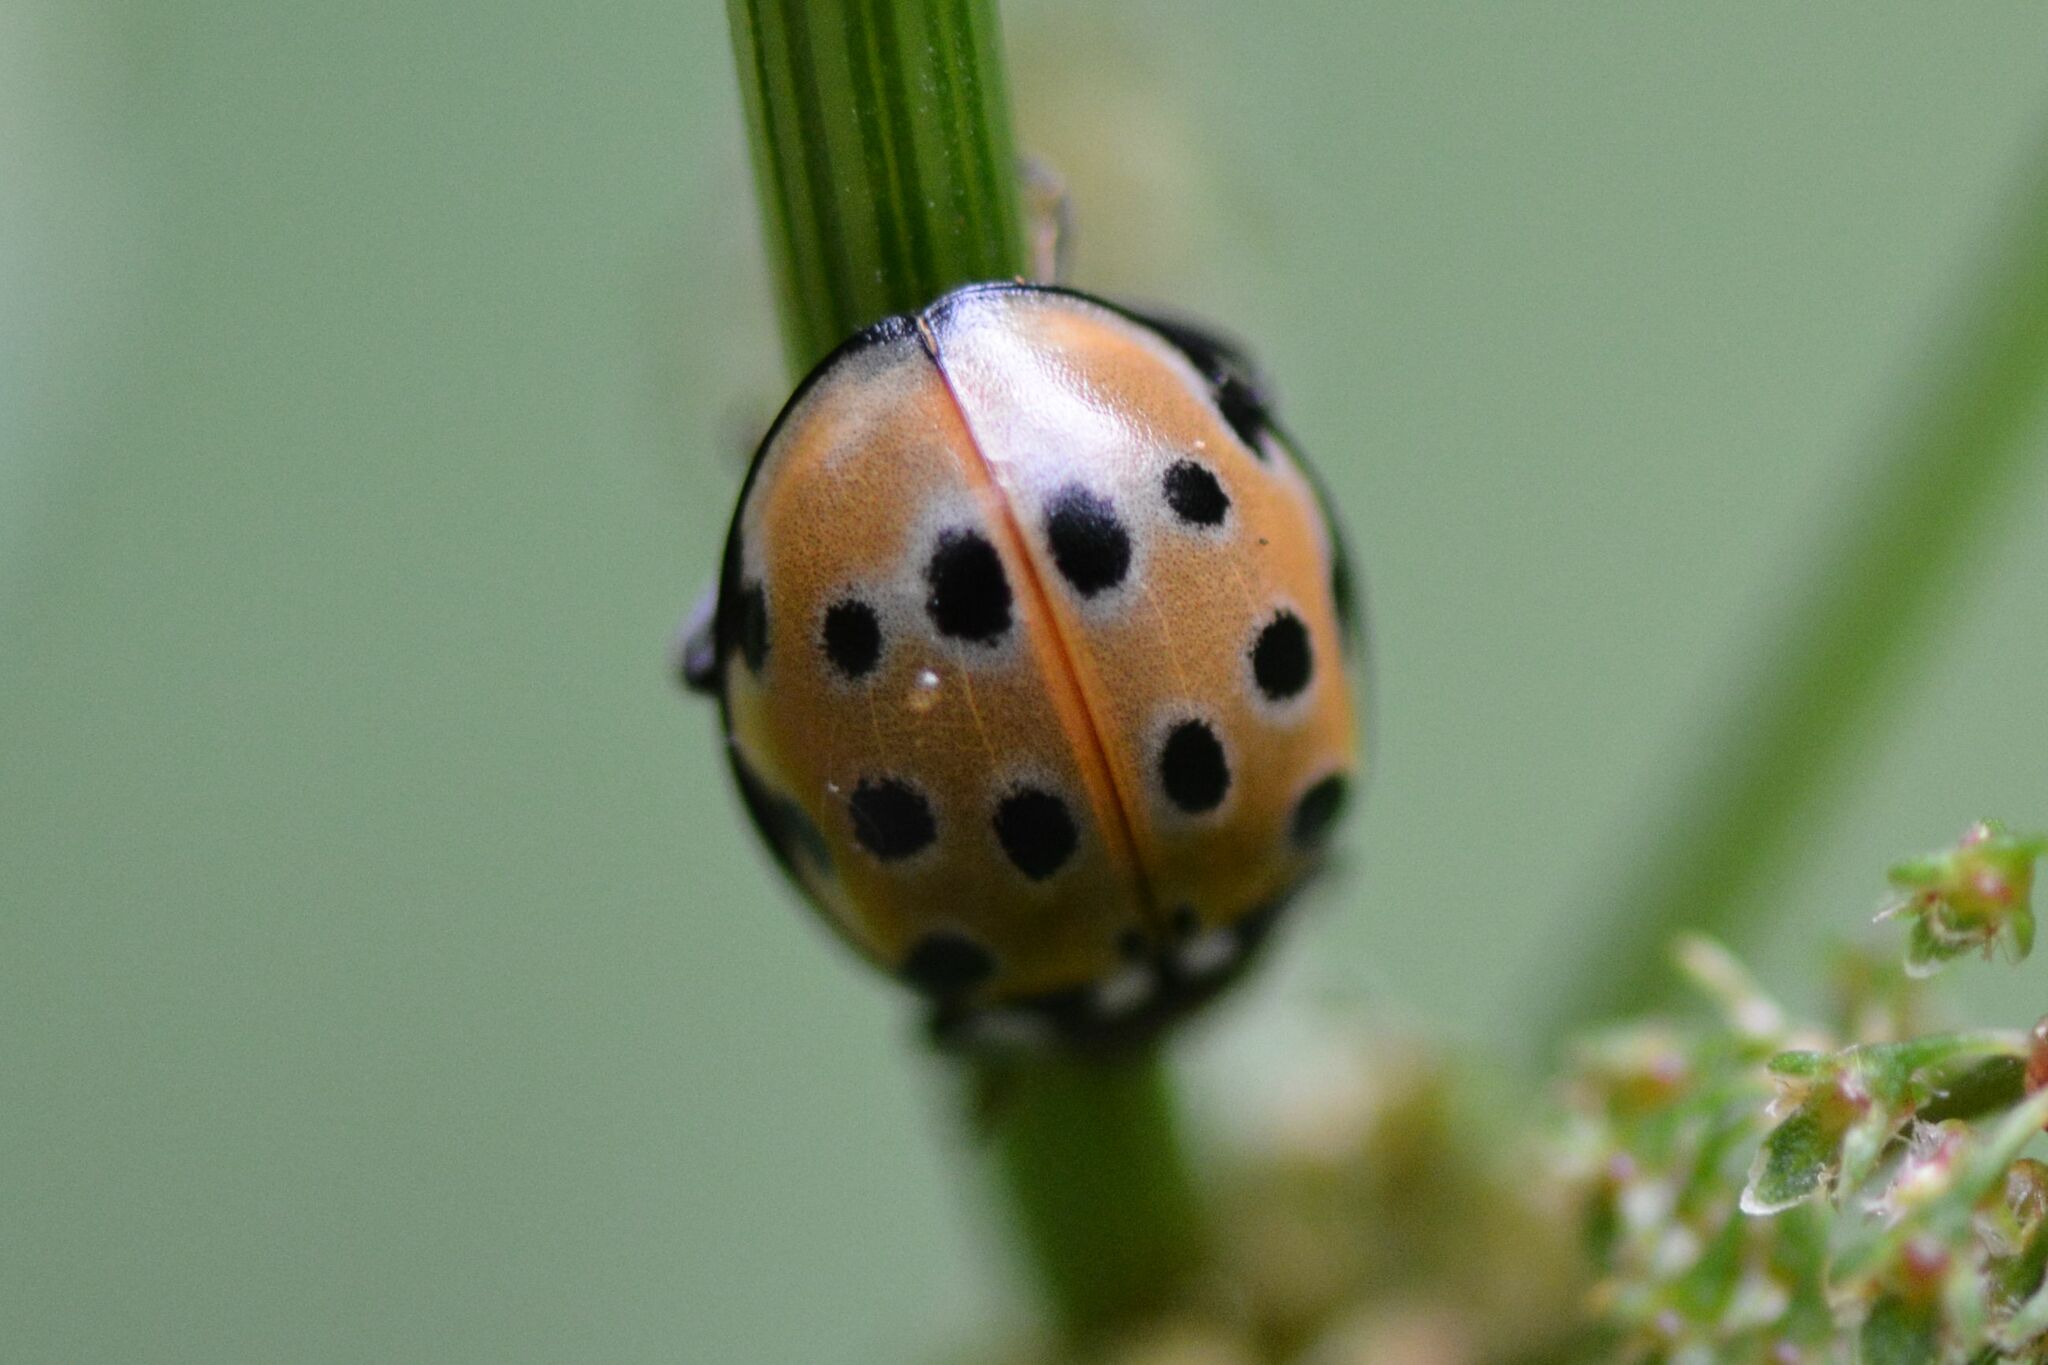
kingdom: Animalia
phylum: Arthropoda
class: Insecta
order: Coleoptera
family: Coccinellidae
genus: Anatis
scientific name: Anatis ocellata
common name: Eyed ladybird
